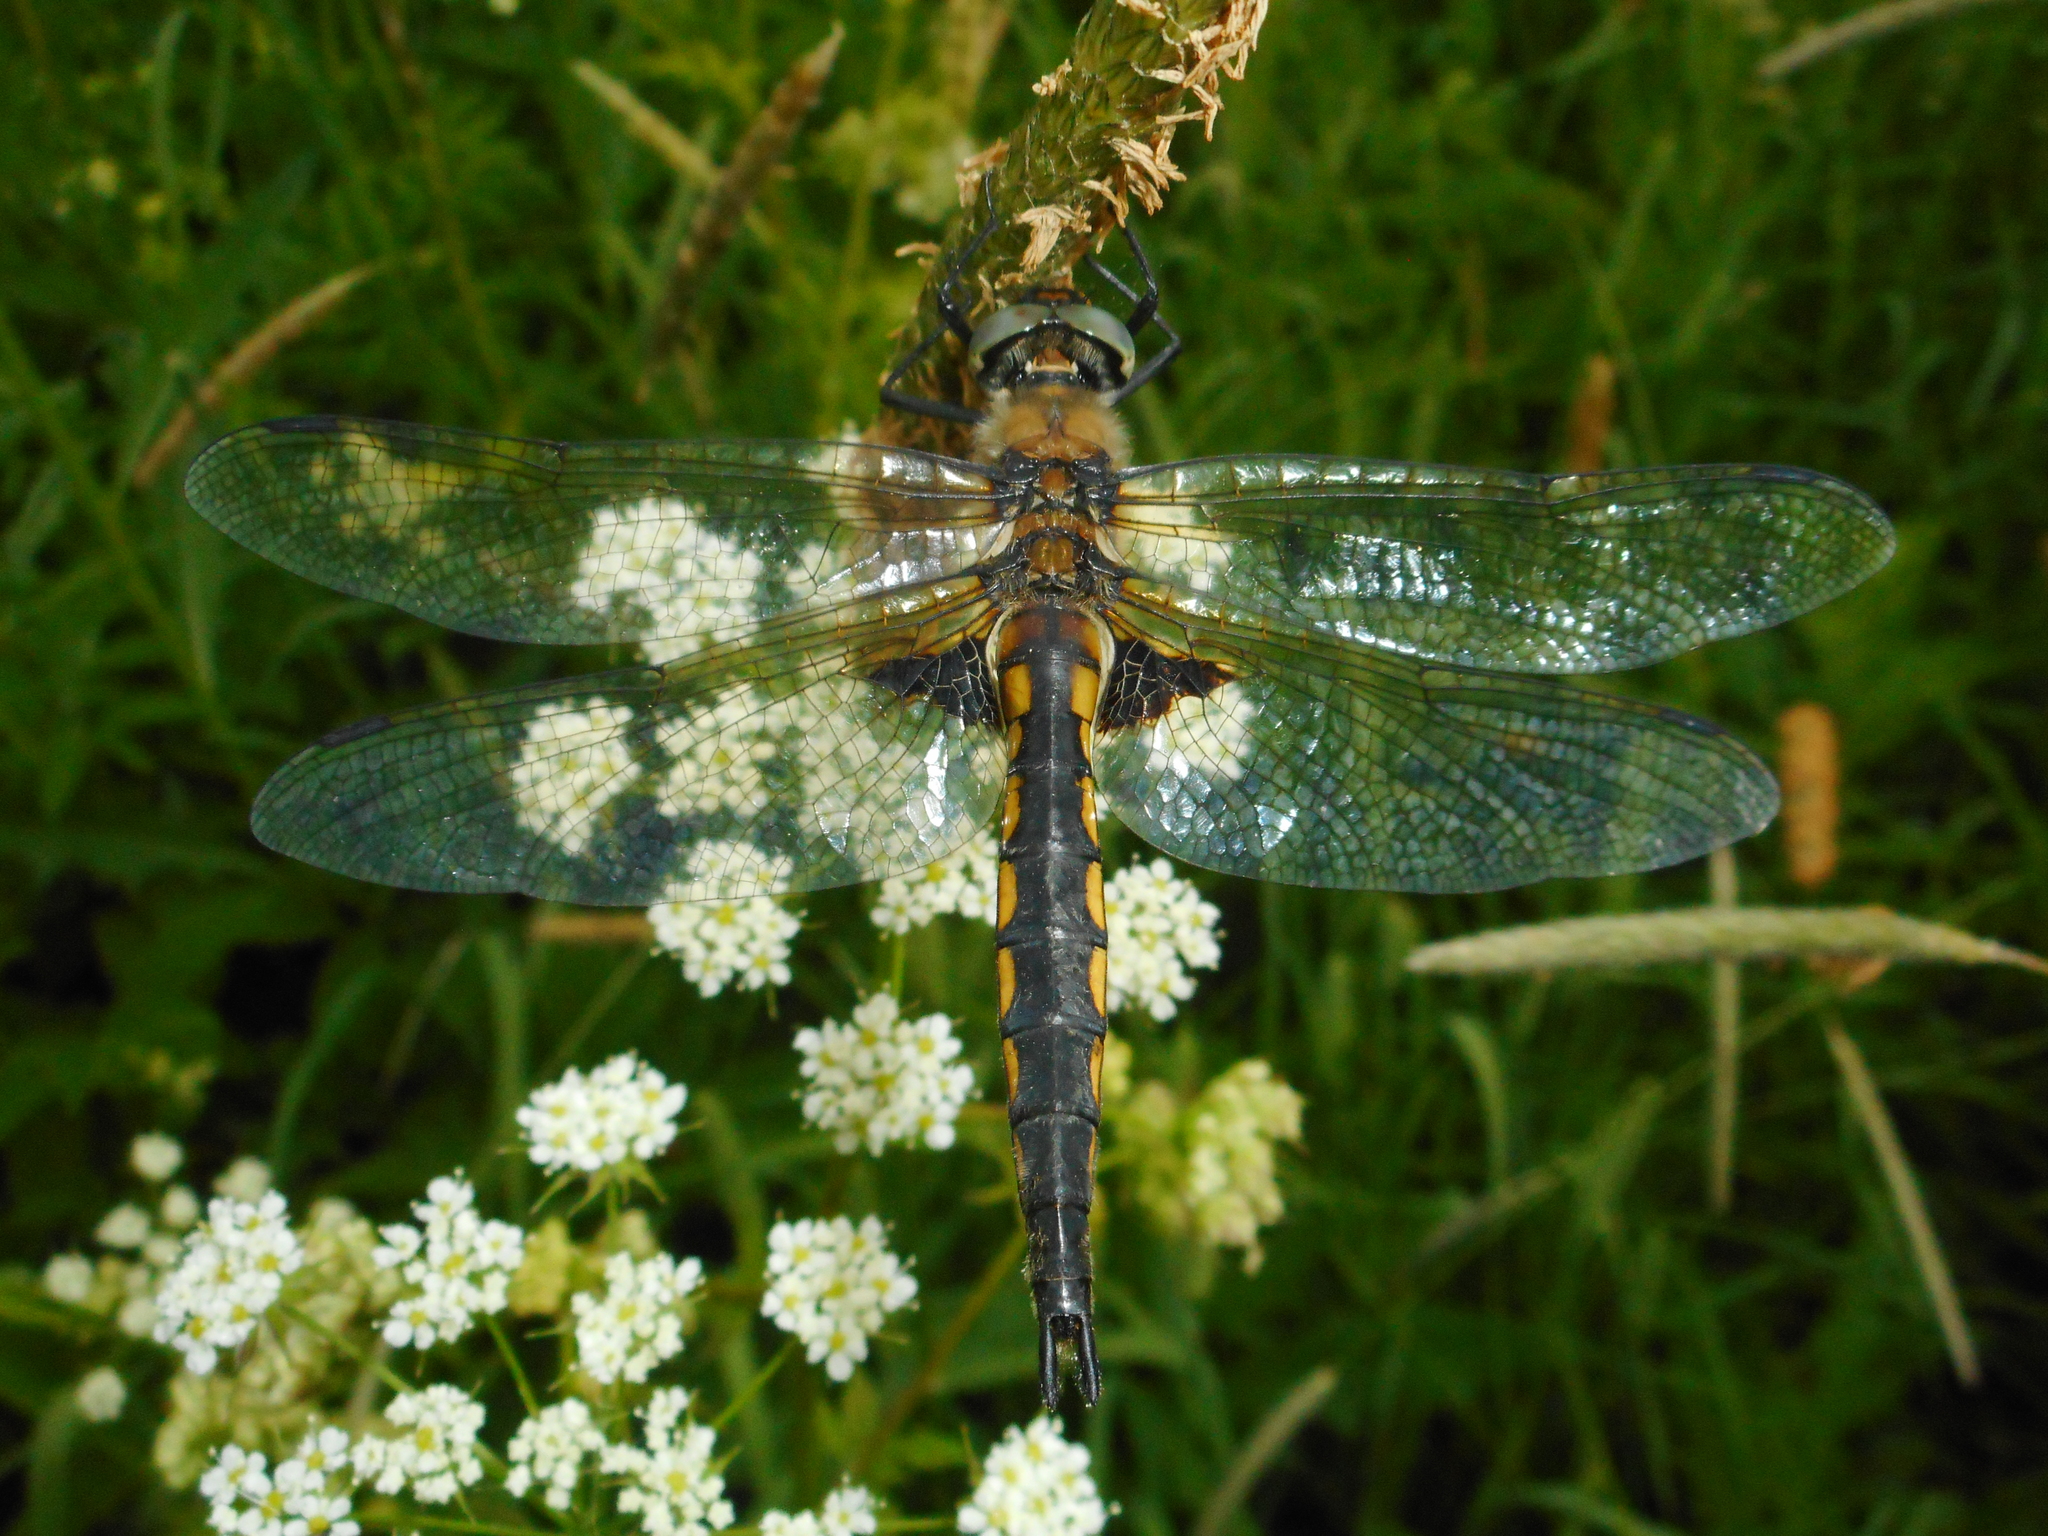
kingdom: Animalia
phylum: Arthropoda
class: Insecta
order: Odonata
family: Corduliidae
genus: Epitheca
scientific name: Epitheca bimaculata
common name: Eurasian baskettail
